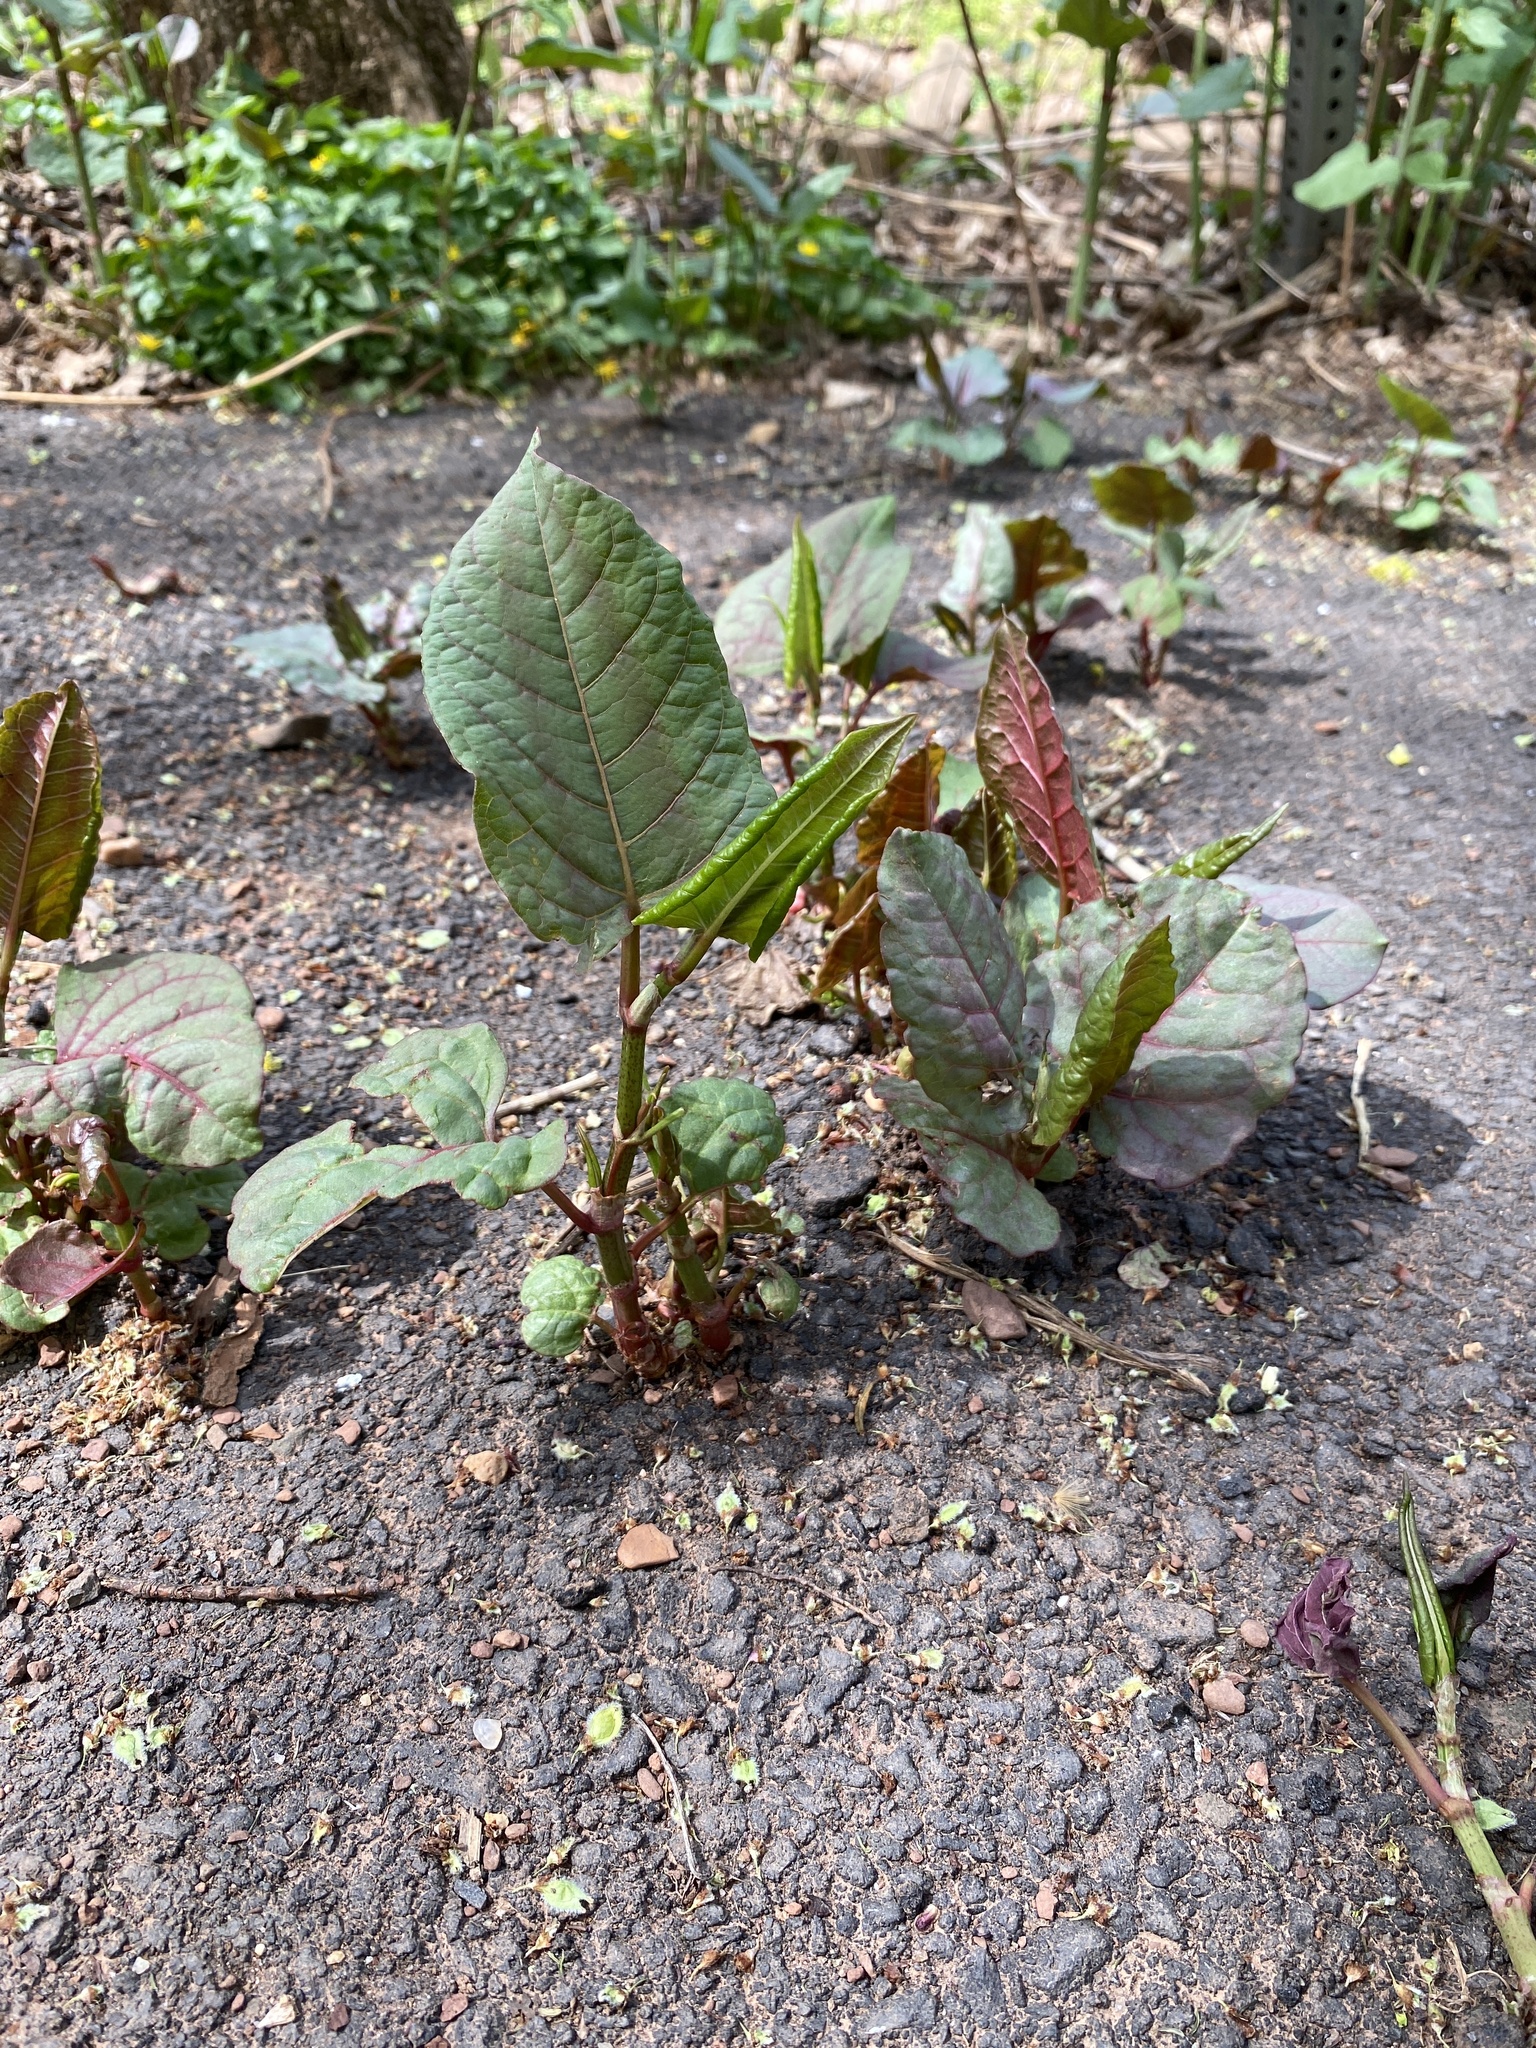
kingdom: Plantae
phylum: Tracheophyta
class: Magnoliopsida
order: Caryophyllales
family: Polygonaceae
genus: Reynoutria
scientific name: Reynoutria japonica
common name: Japanese knotweed
